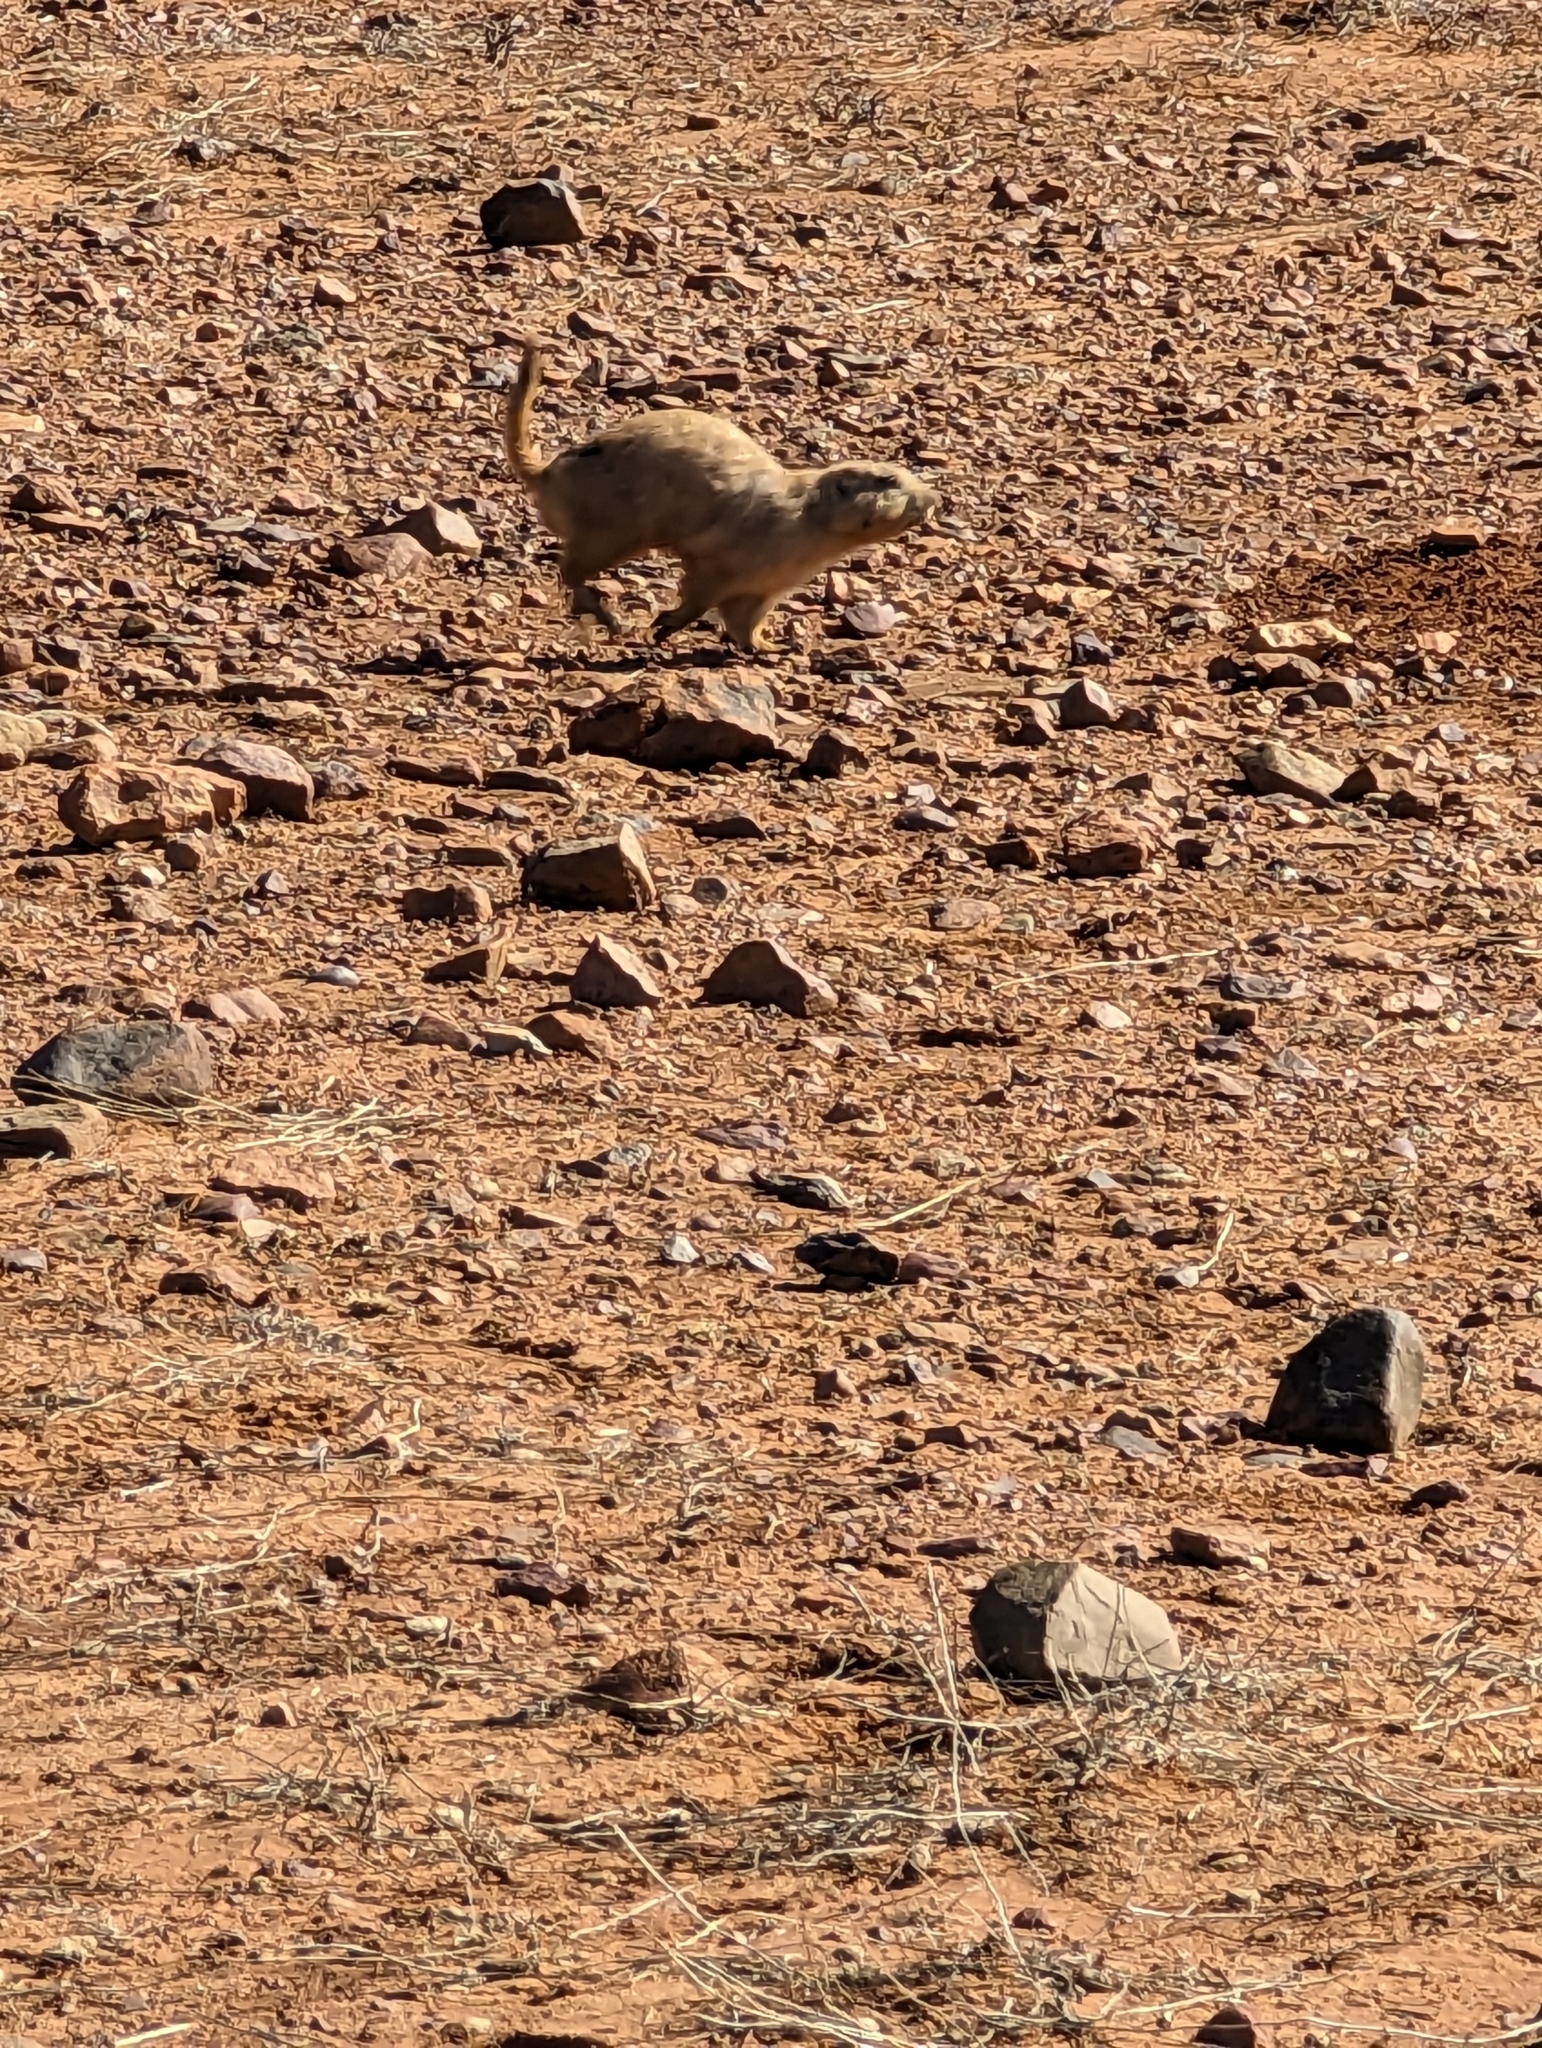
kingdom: Animalia
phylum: Chordata
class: Mammalia
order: Rodentia
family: Sciuridae
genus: Cynomys
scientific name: Cynomys ludovicianus
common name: Black-tailed prairie dog
